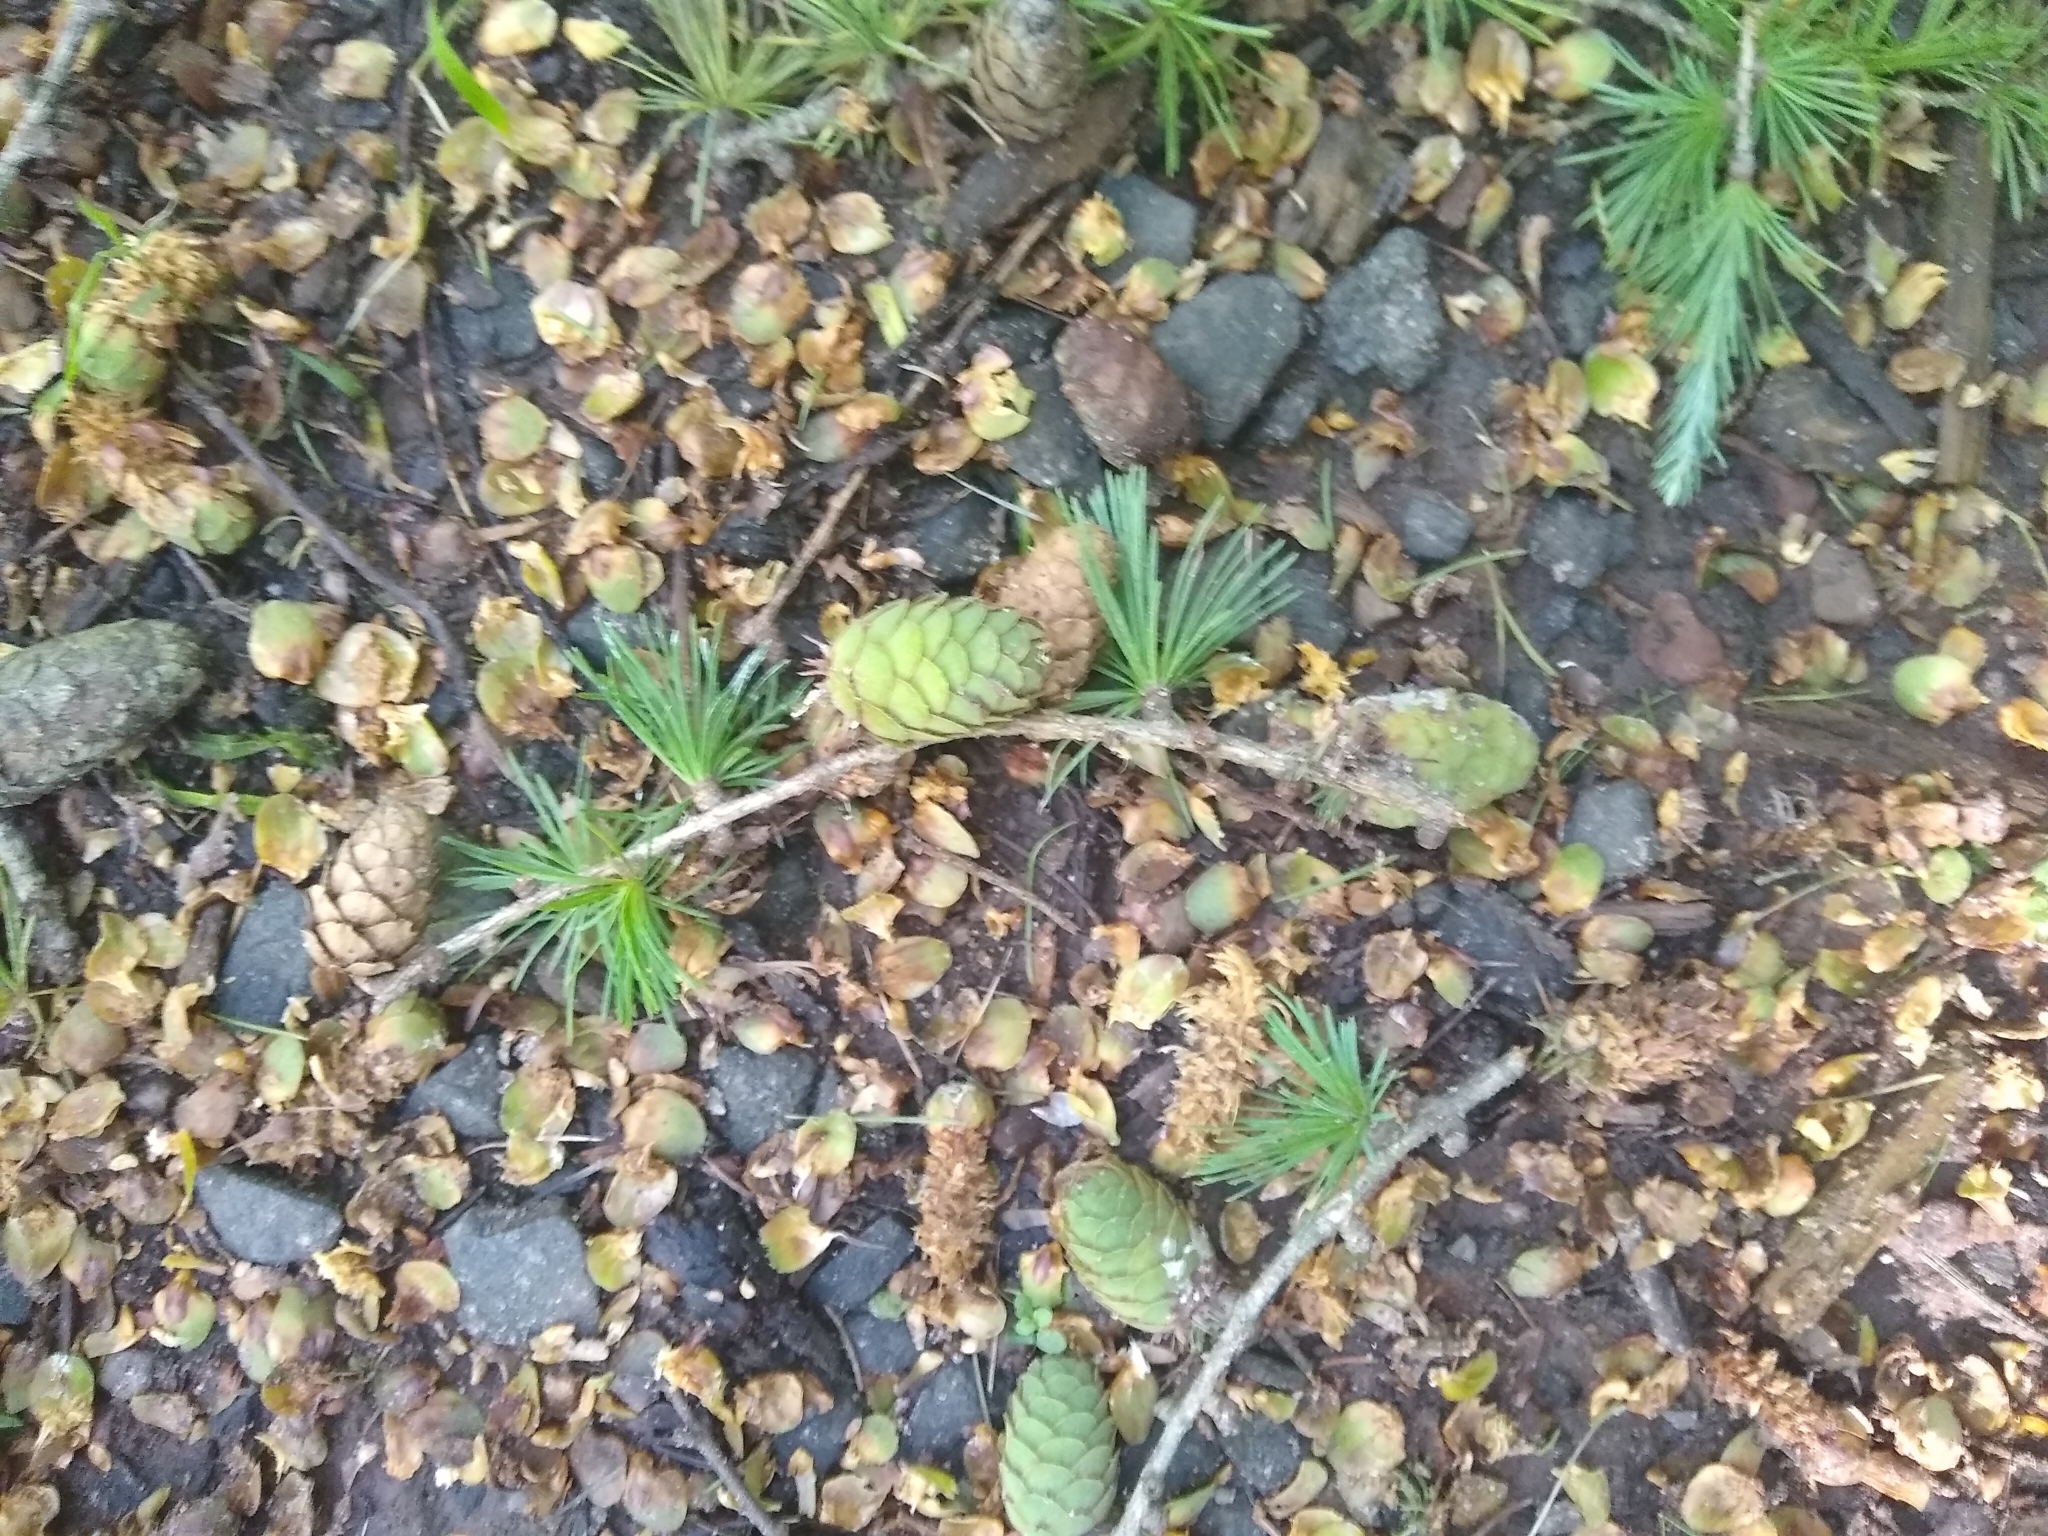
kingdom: Plantae
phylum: Tracheophyta
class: Pinopsida
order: Pinales
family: Pinaceae
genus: Larix
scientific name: Larix decidua
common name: European larch
